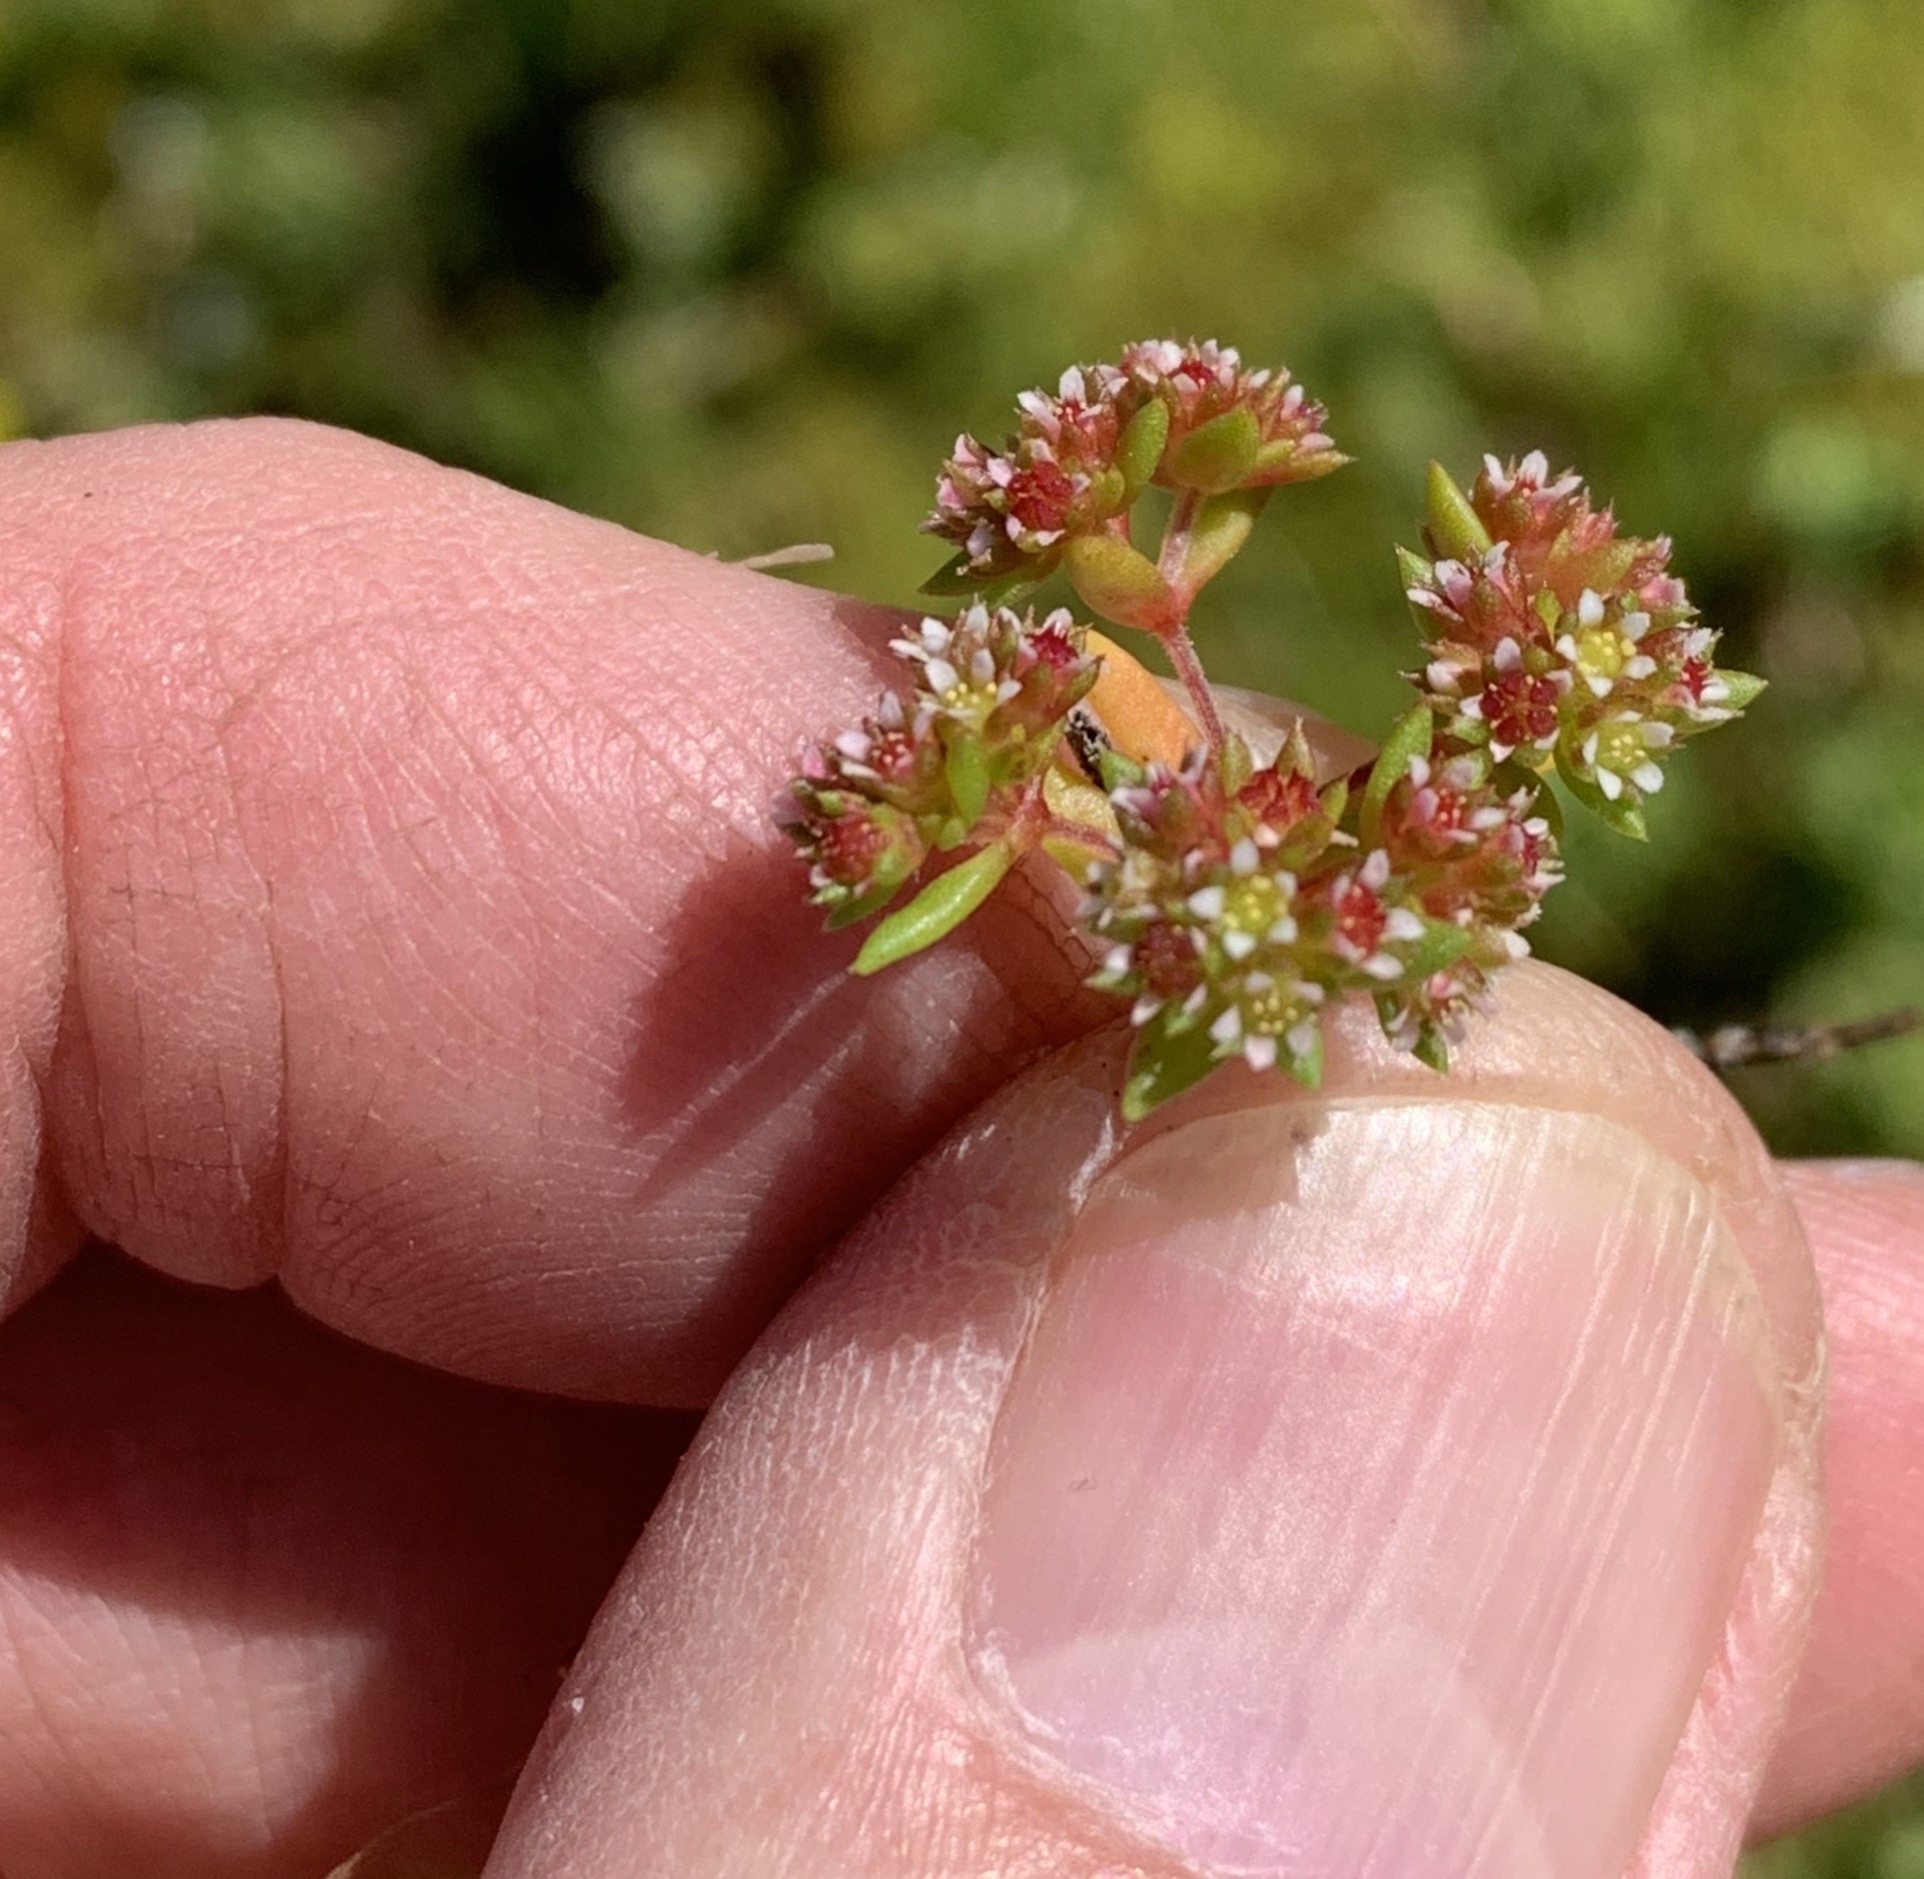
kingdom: Plantae
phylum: Tracheophyta
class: Magnoliopsida
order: Saxifragales
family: Crassulaceae
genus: Crassula
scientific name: Crassula glomerata
